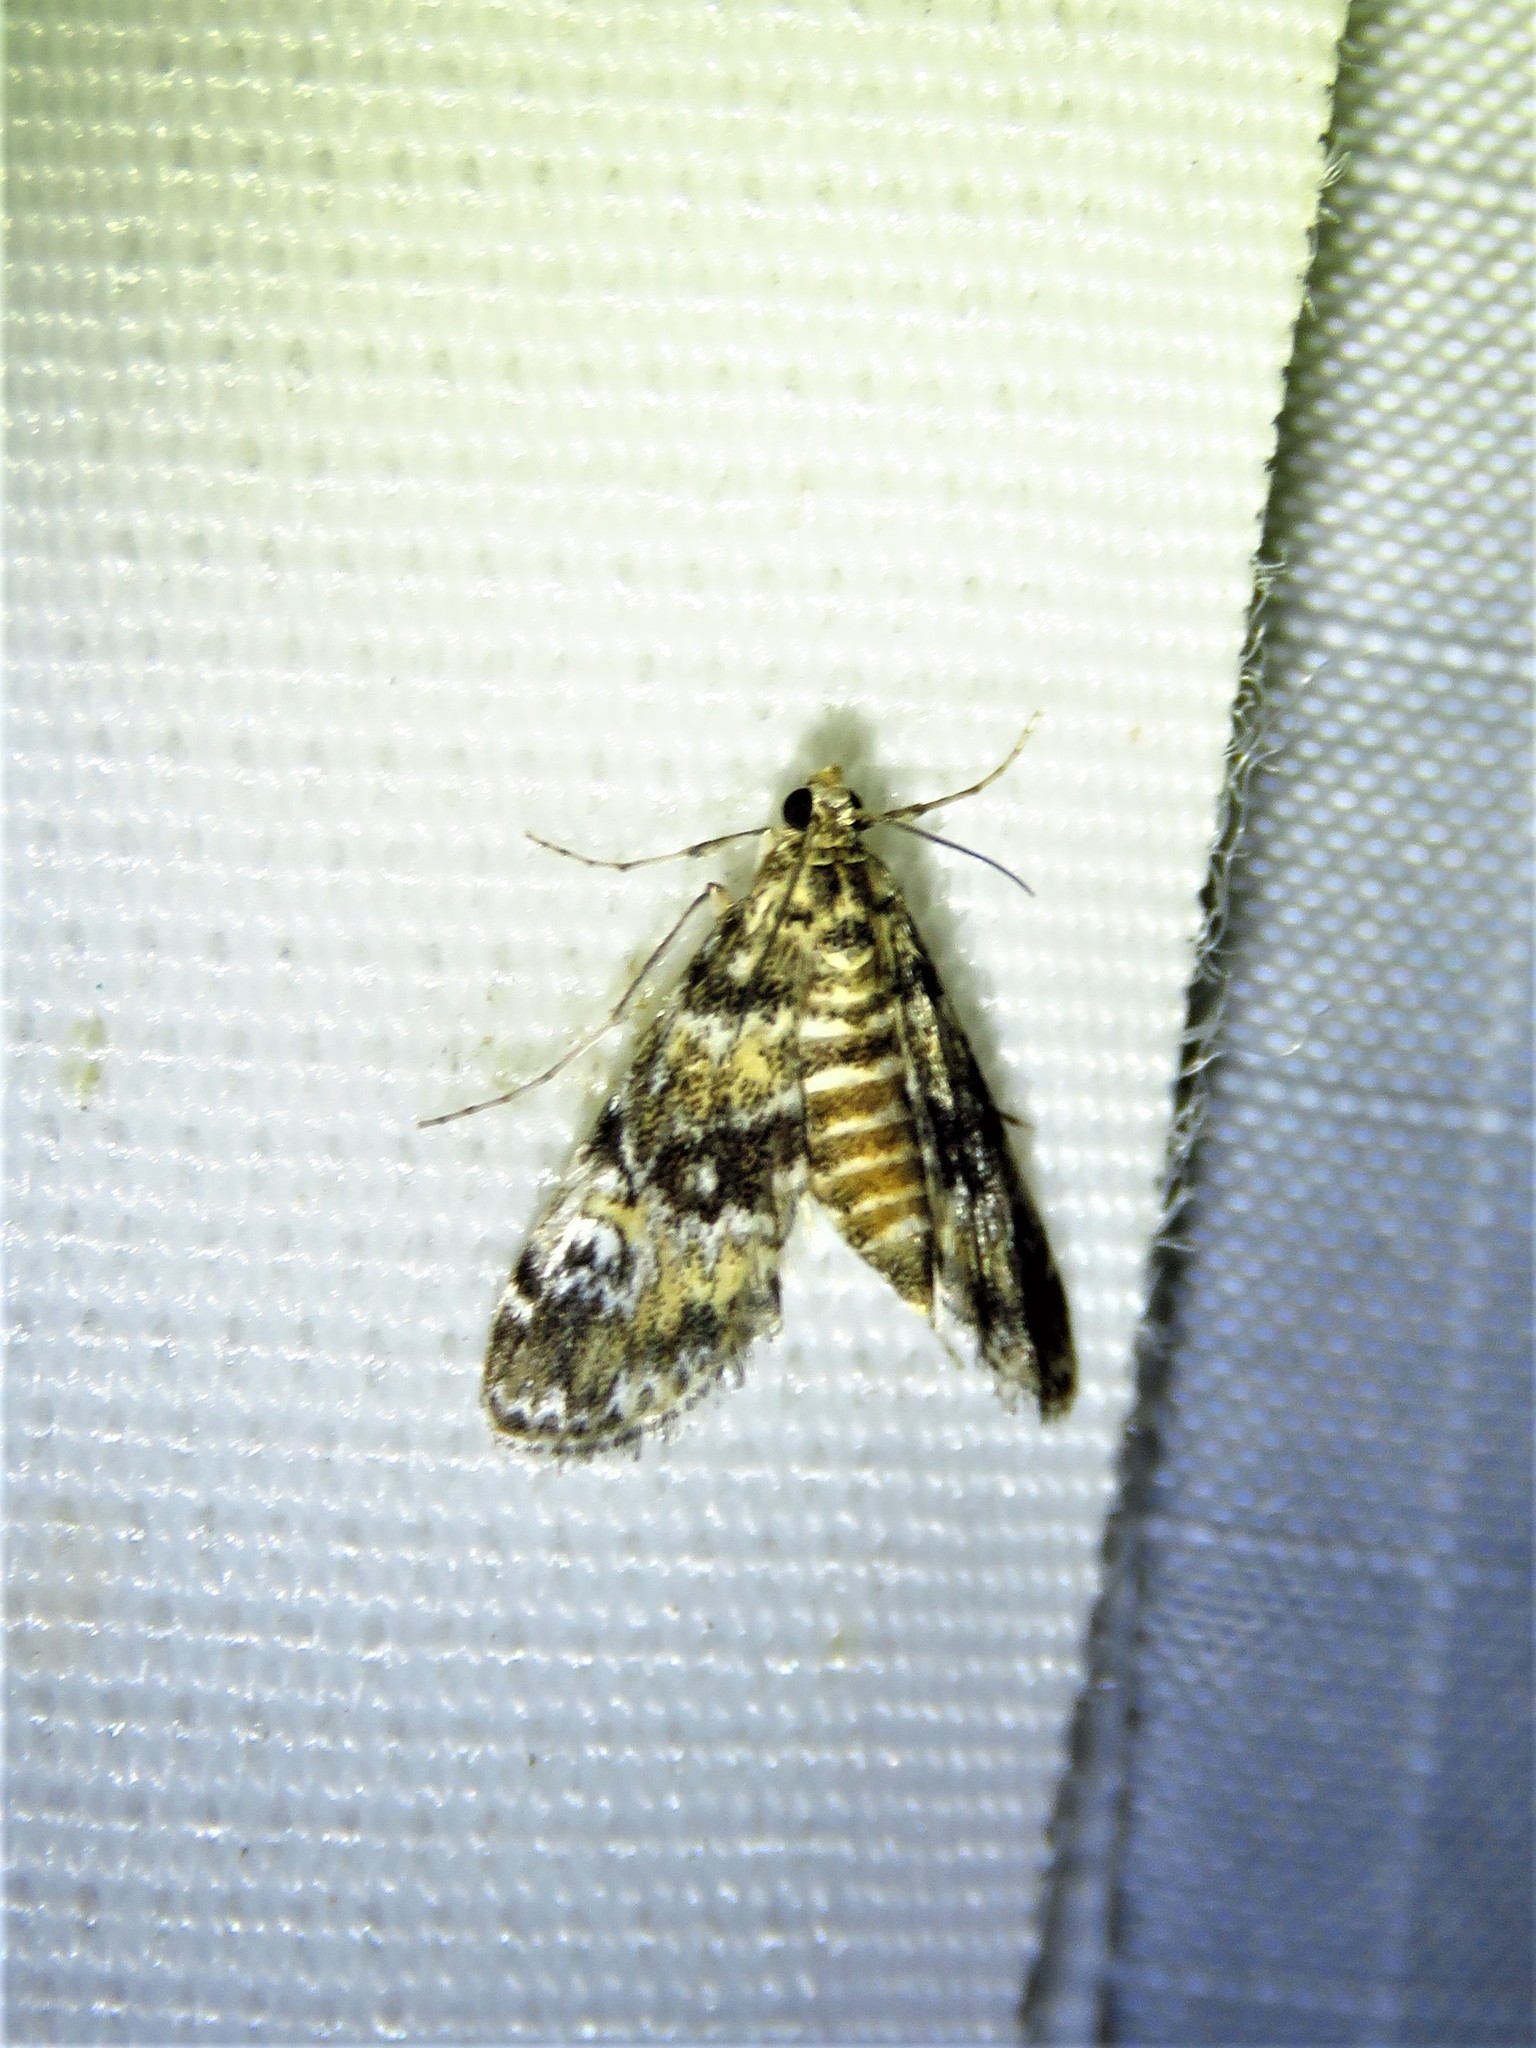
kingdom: Animalia
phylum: Arthropoda
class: Insecta
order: Lepidoptera
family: Crambidae
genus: Elophila
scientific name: Elophila obliteralis
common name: Waterlily leafcutter moth
